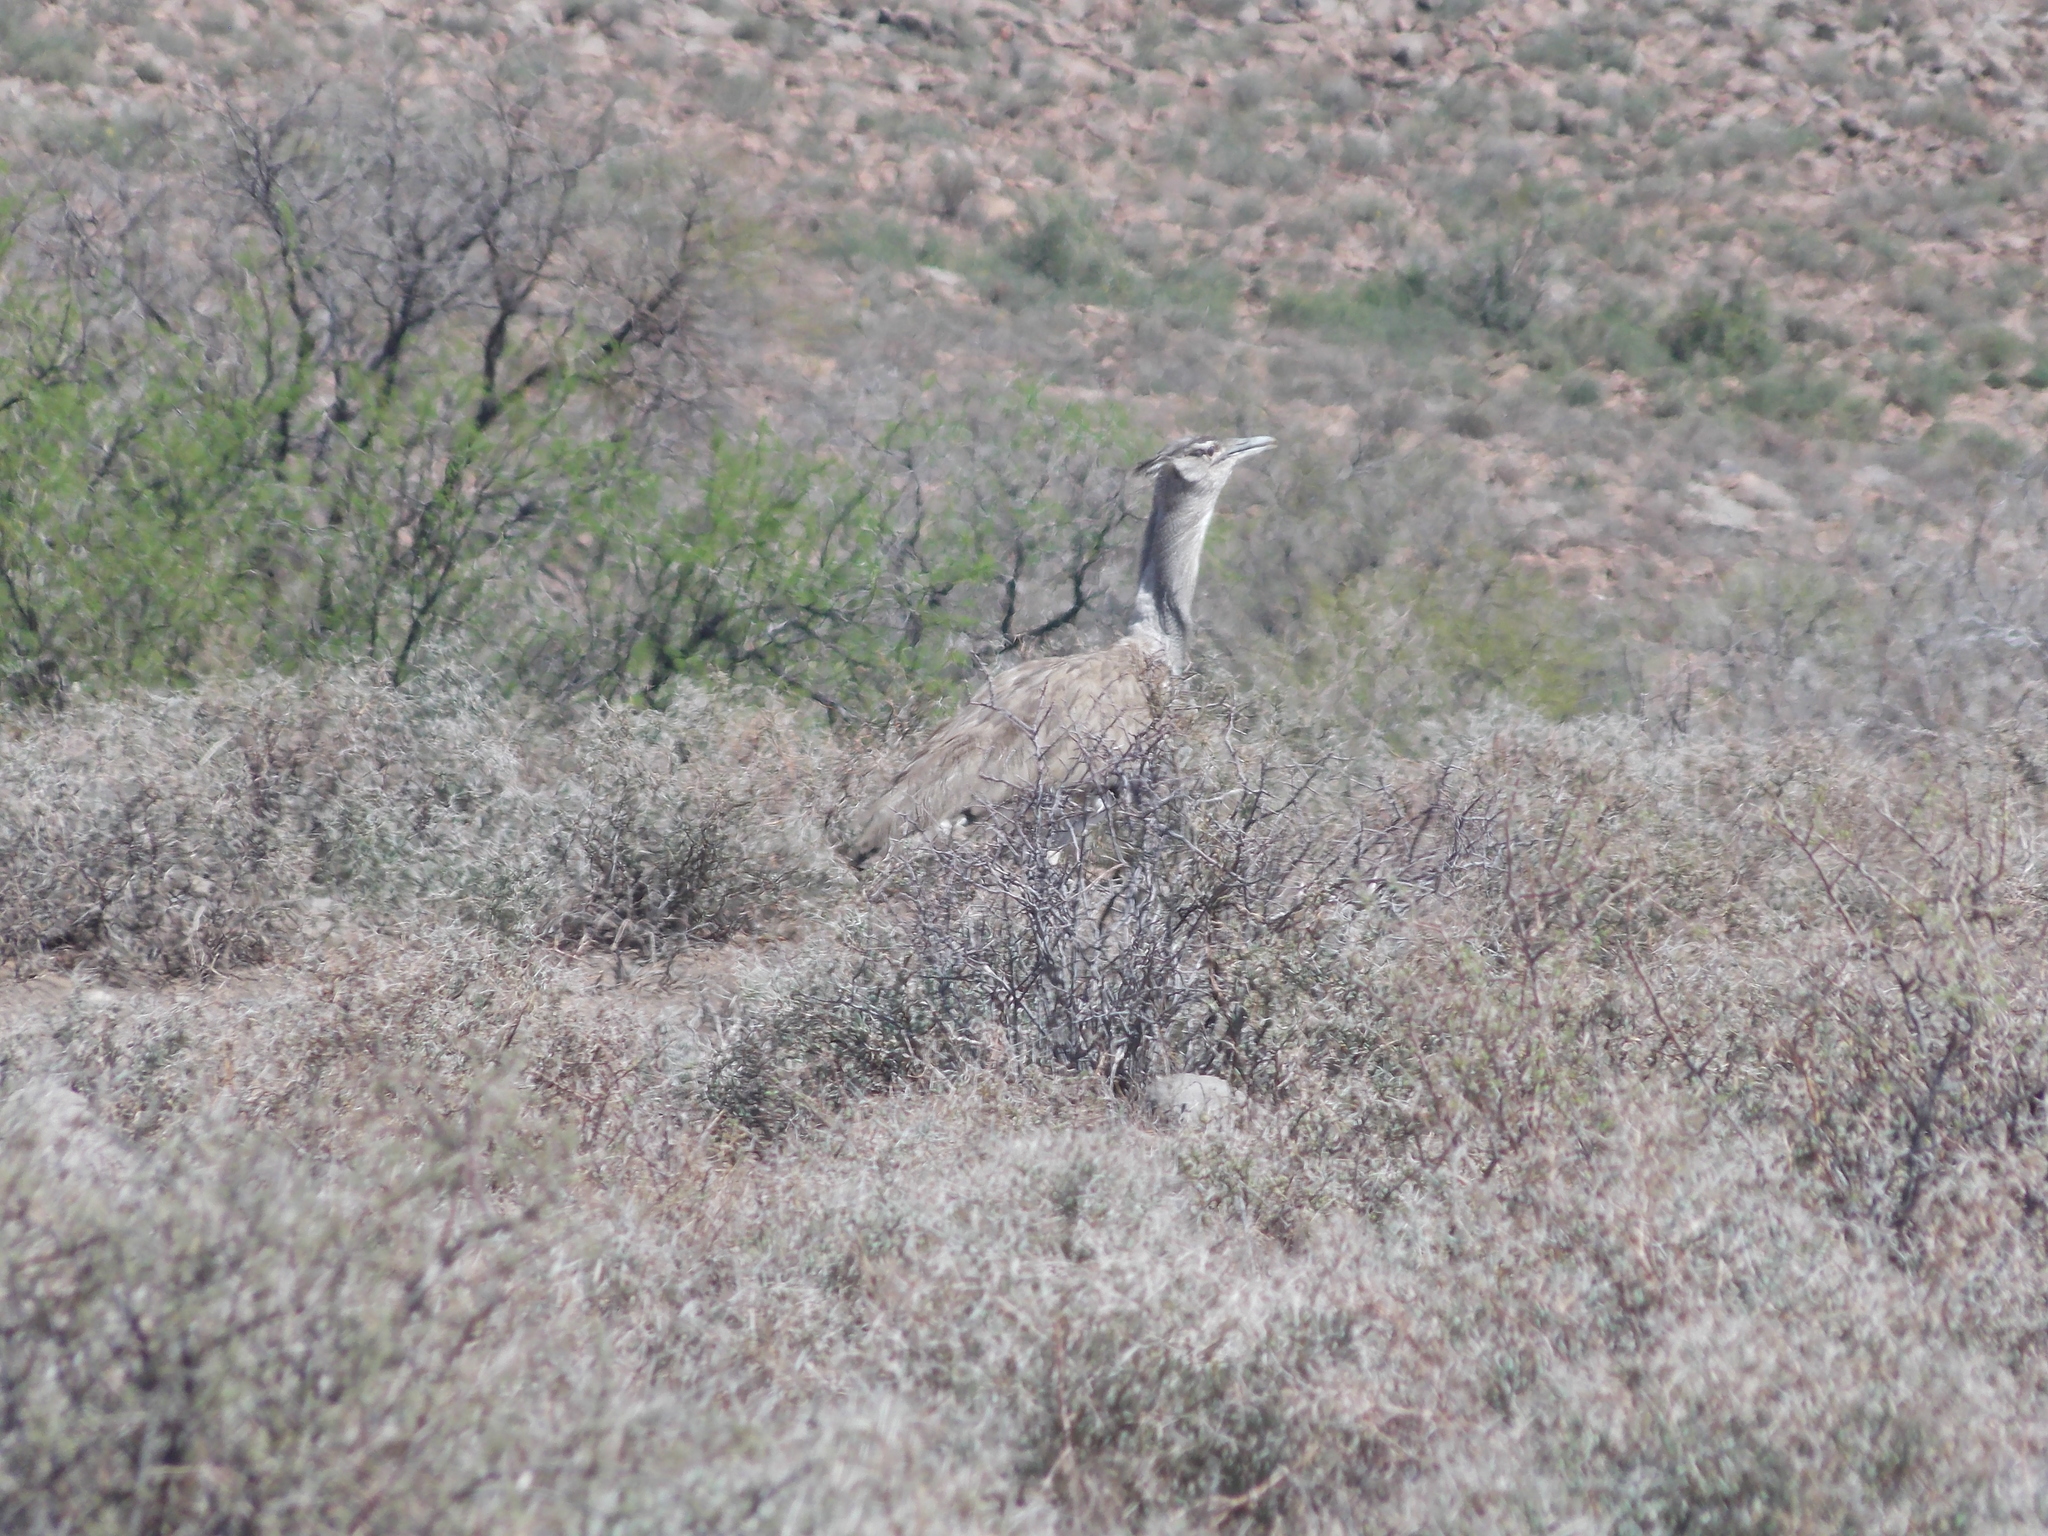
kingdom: Animalia
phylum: Chordata
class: Aves
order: Otidiformes
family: Otididae
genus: Ardeotis
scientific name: Ardeotis kori
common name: Kori bustard
